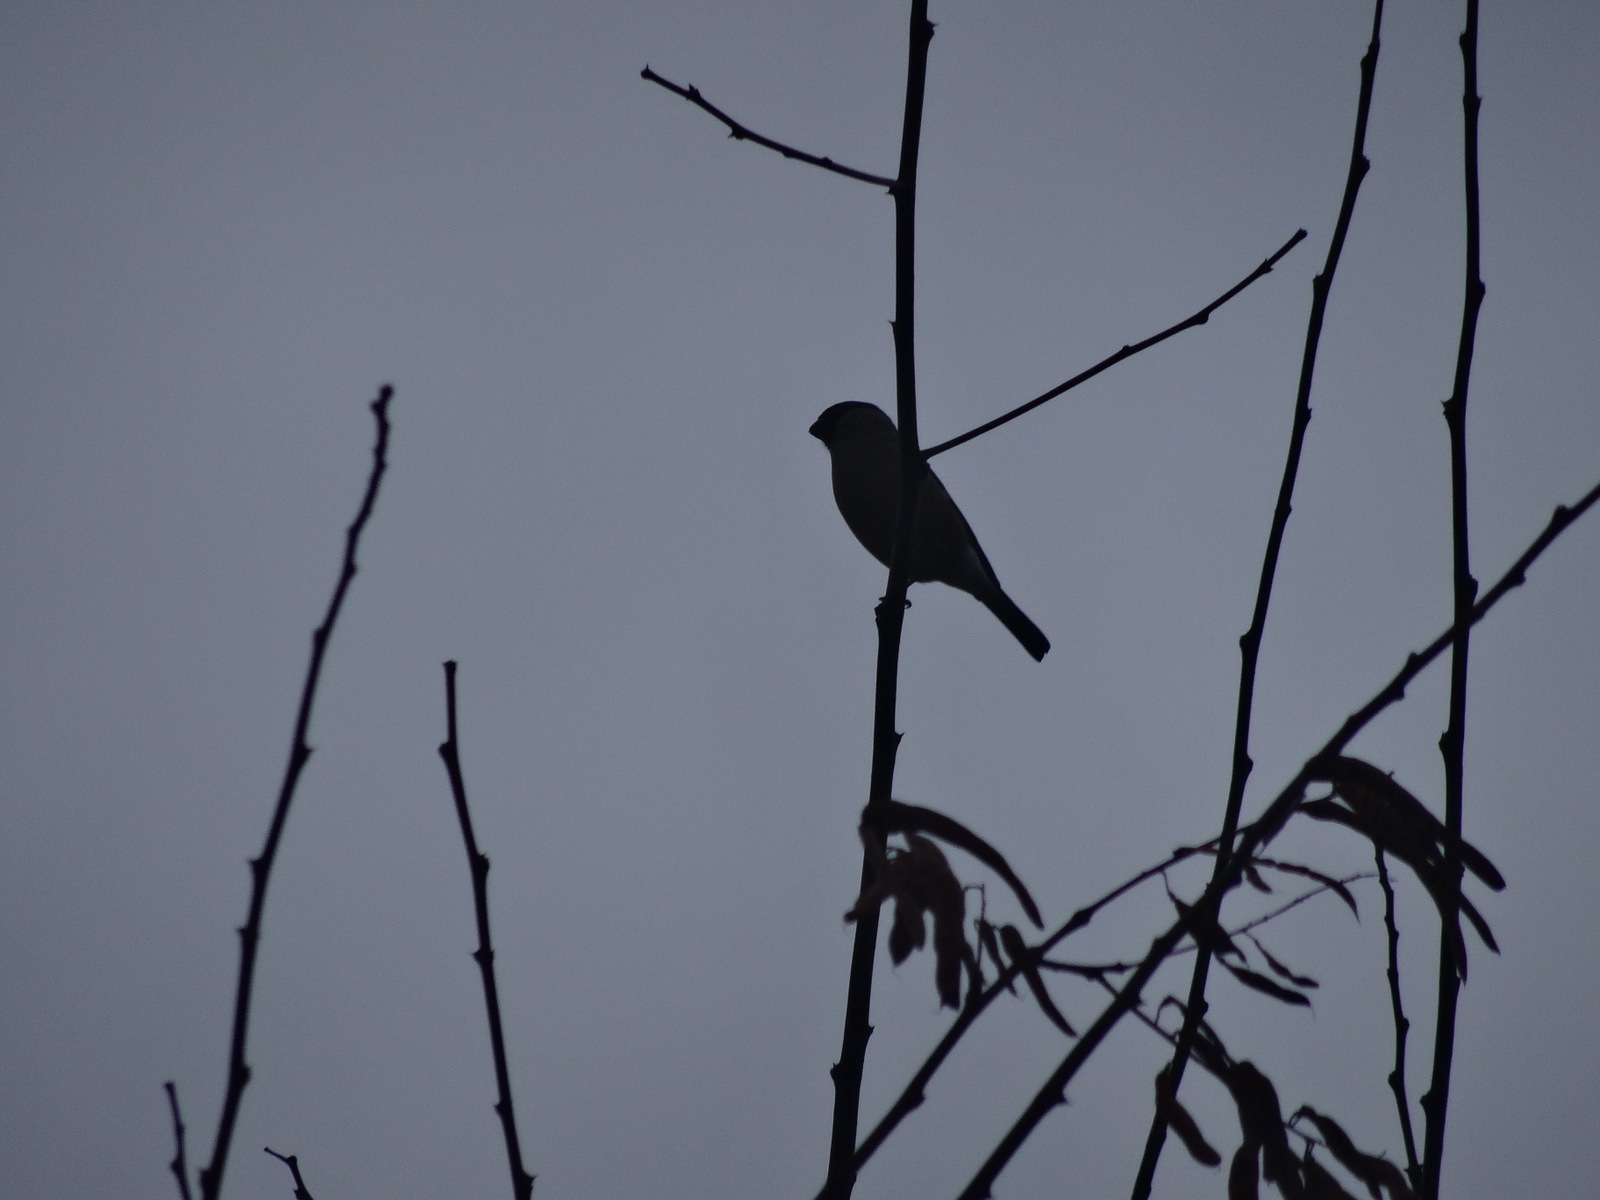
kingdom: Animalia
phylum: Chordata
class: Aves
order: Passeriformes
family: Fringillidae
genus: Pyrrhula
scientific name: Pyrrhula pyrrhula
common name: Eurasian bullfinch
